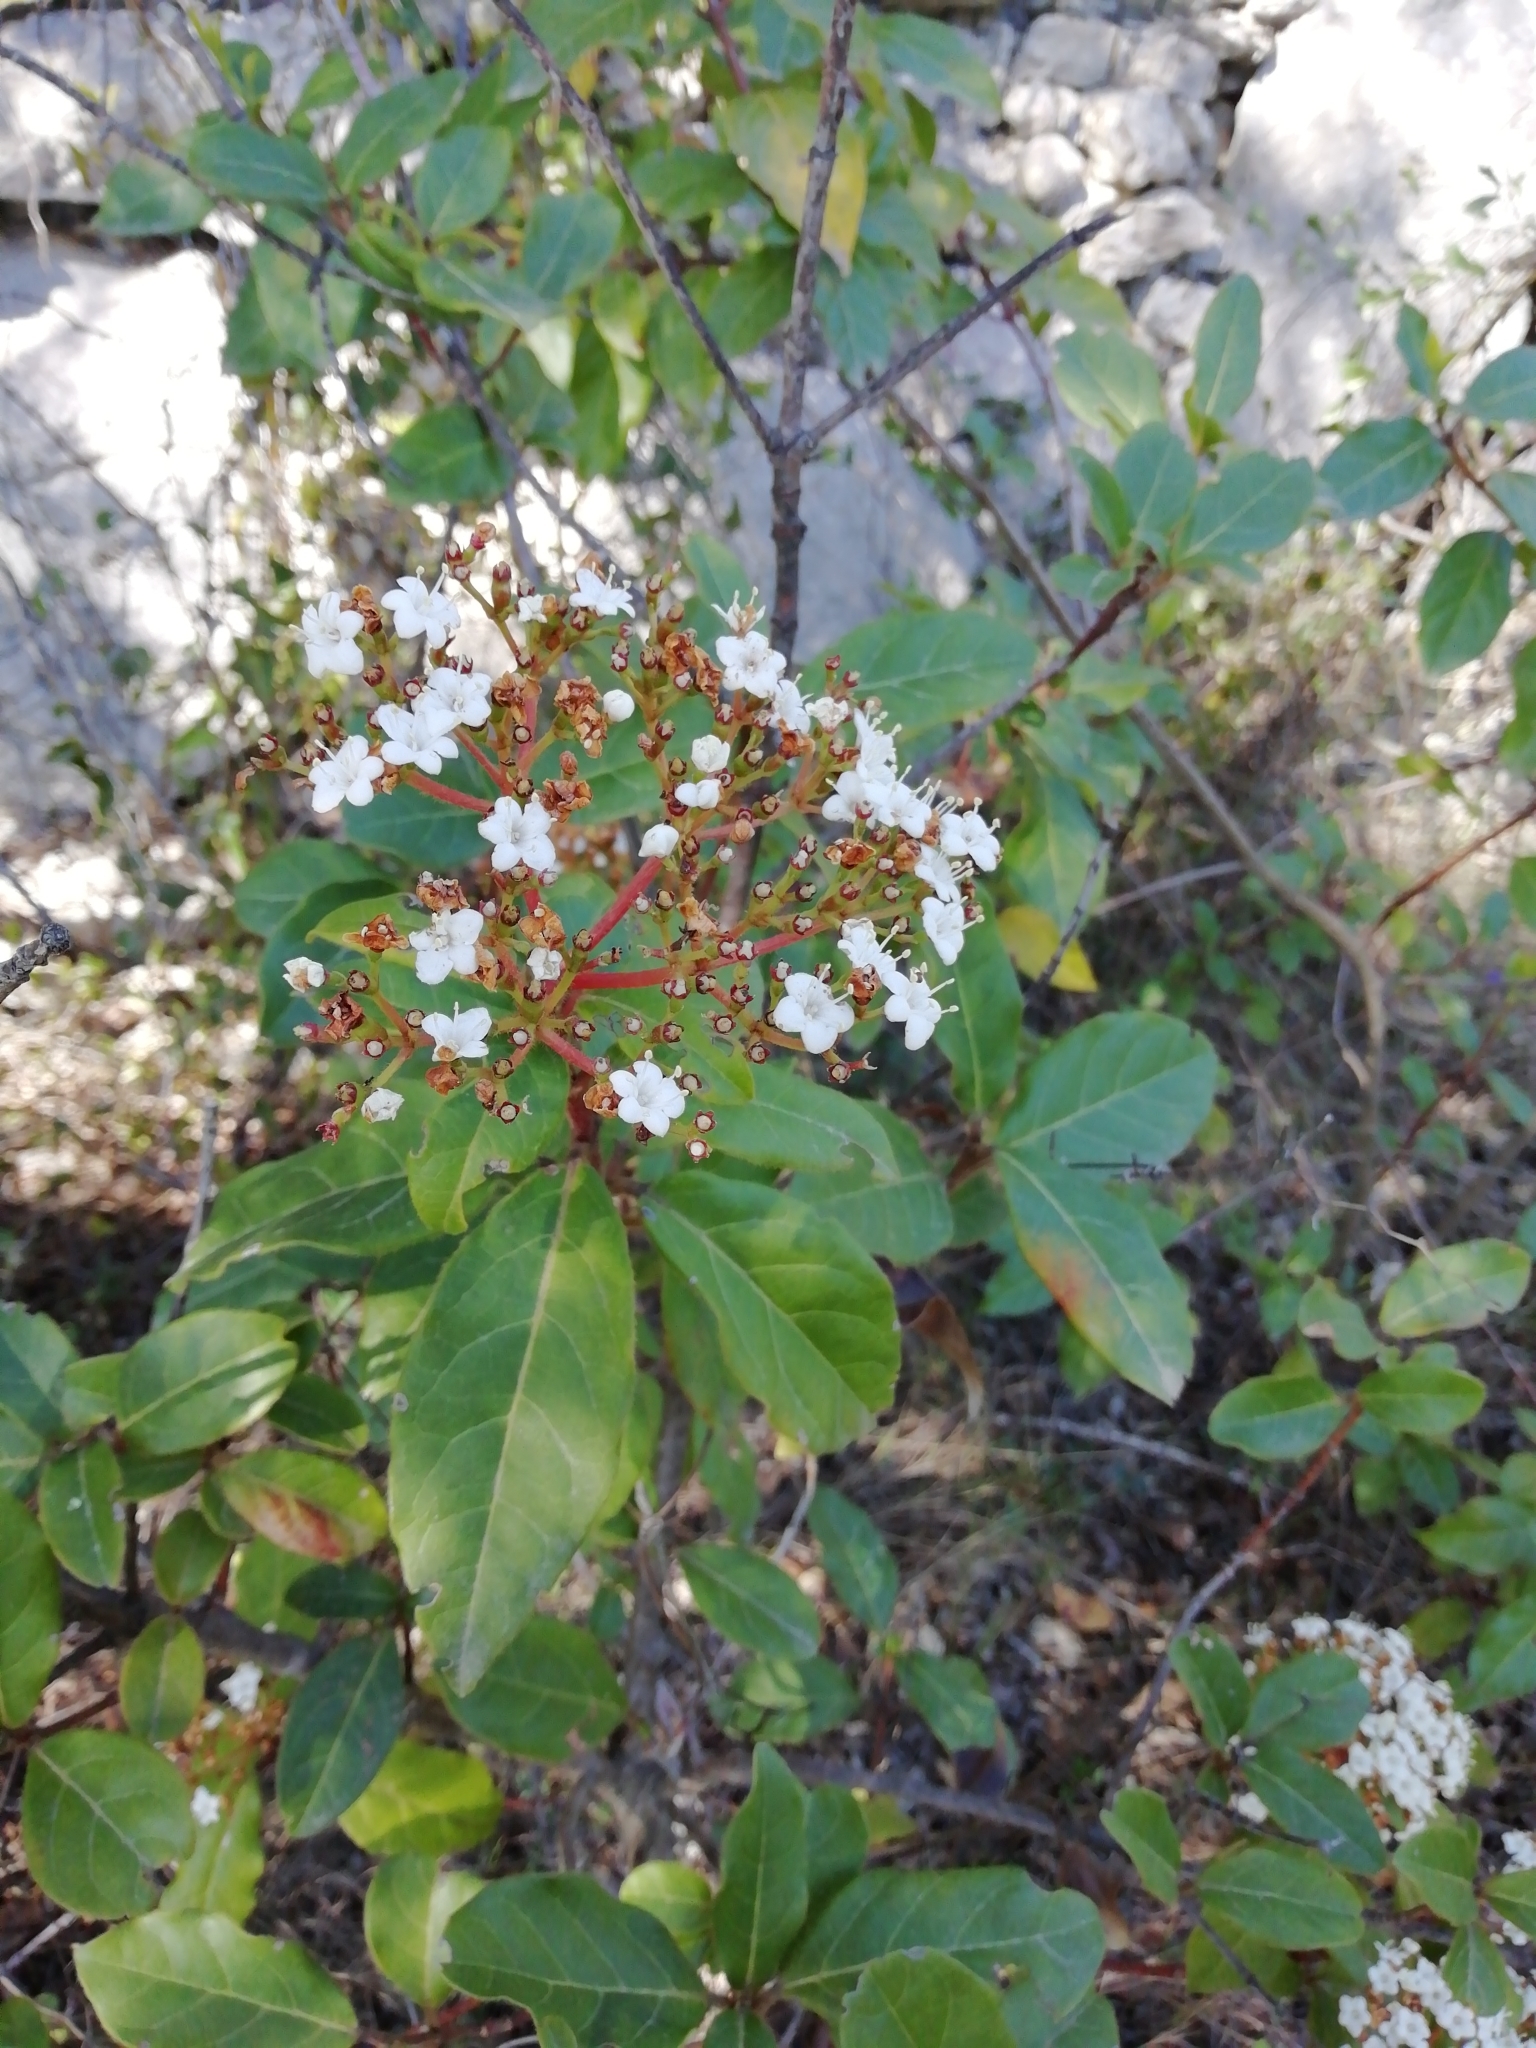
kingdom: Plantae
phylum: Tracheophyta
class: Magnoliopsida
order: Dipsacales
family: Viburnaceae
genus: Viburnum
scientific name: Viburnum tinus
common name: Laurustinus
